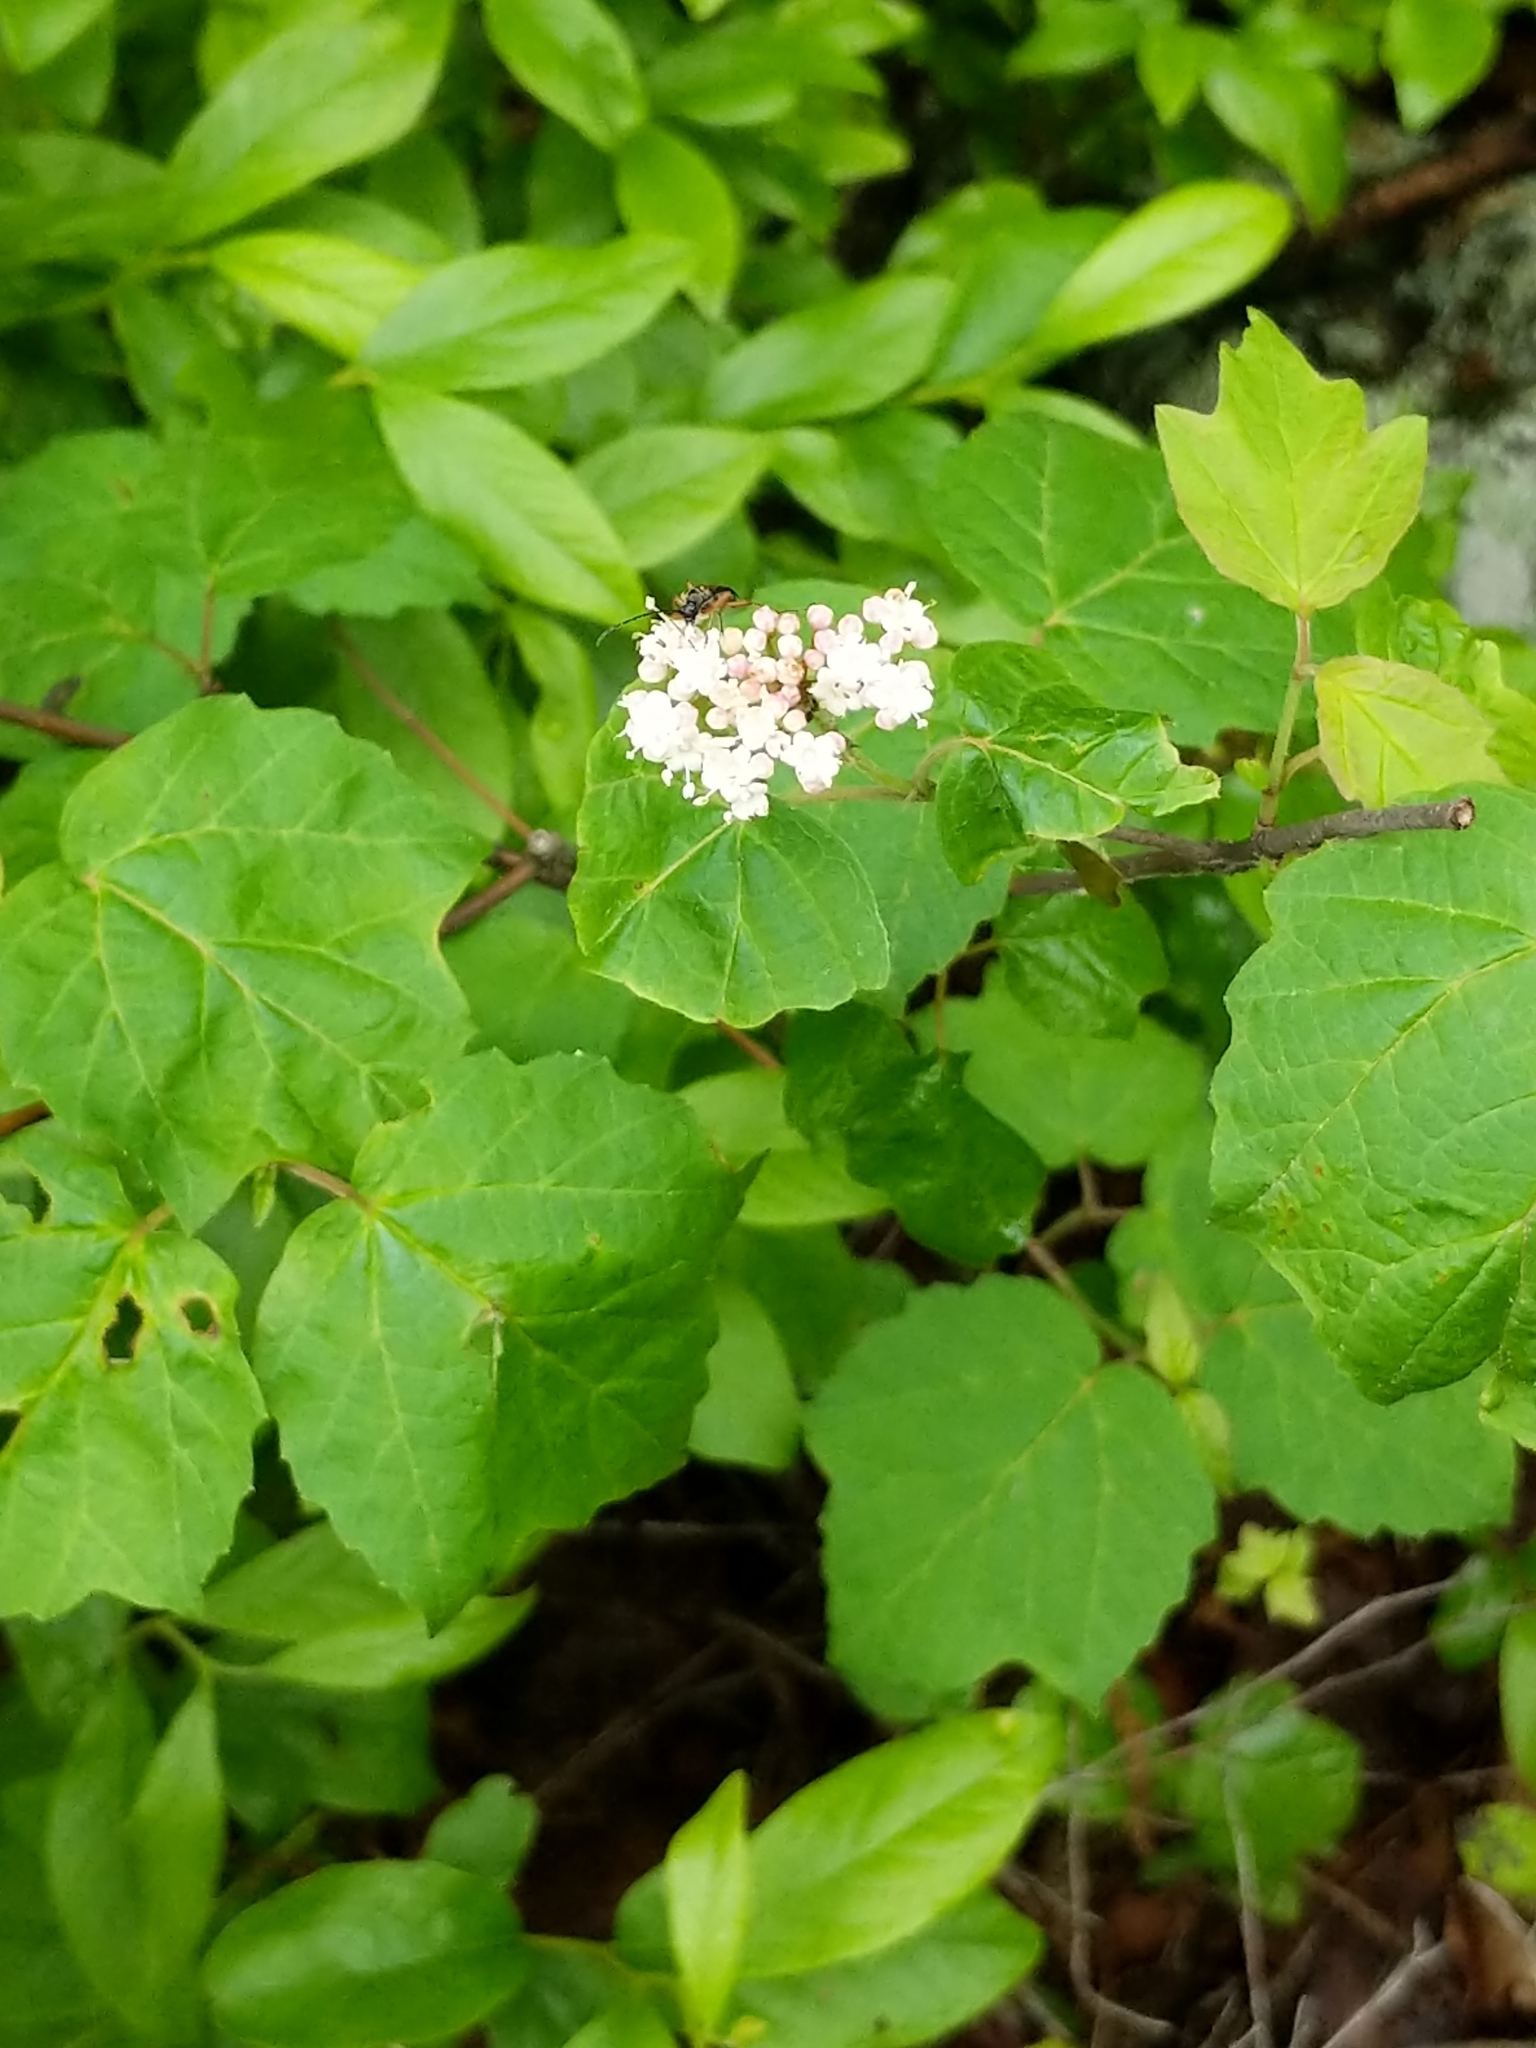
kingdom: Plantae
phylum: Tracheophyta
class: Magnoliopsida
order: Dipsacales
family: Viburnaceae
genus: Viburnum
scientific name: Viburnum acerifolium
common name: Dockmackie
